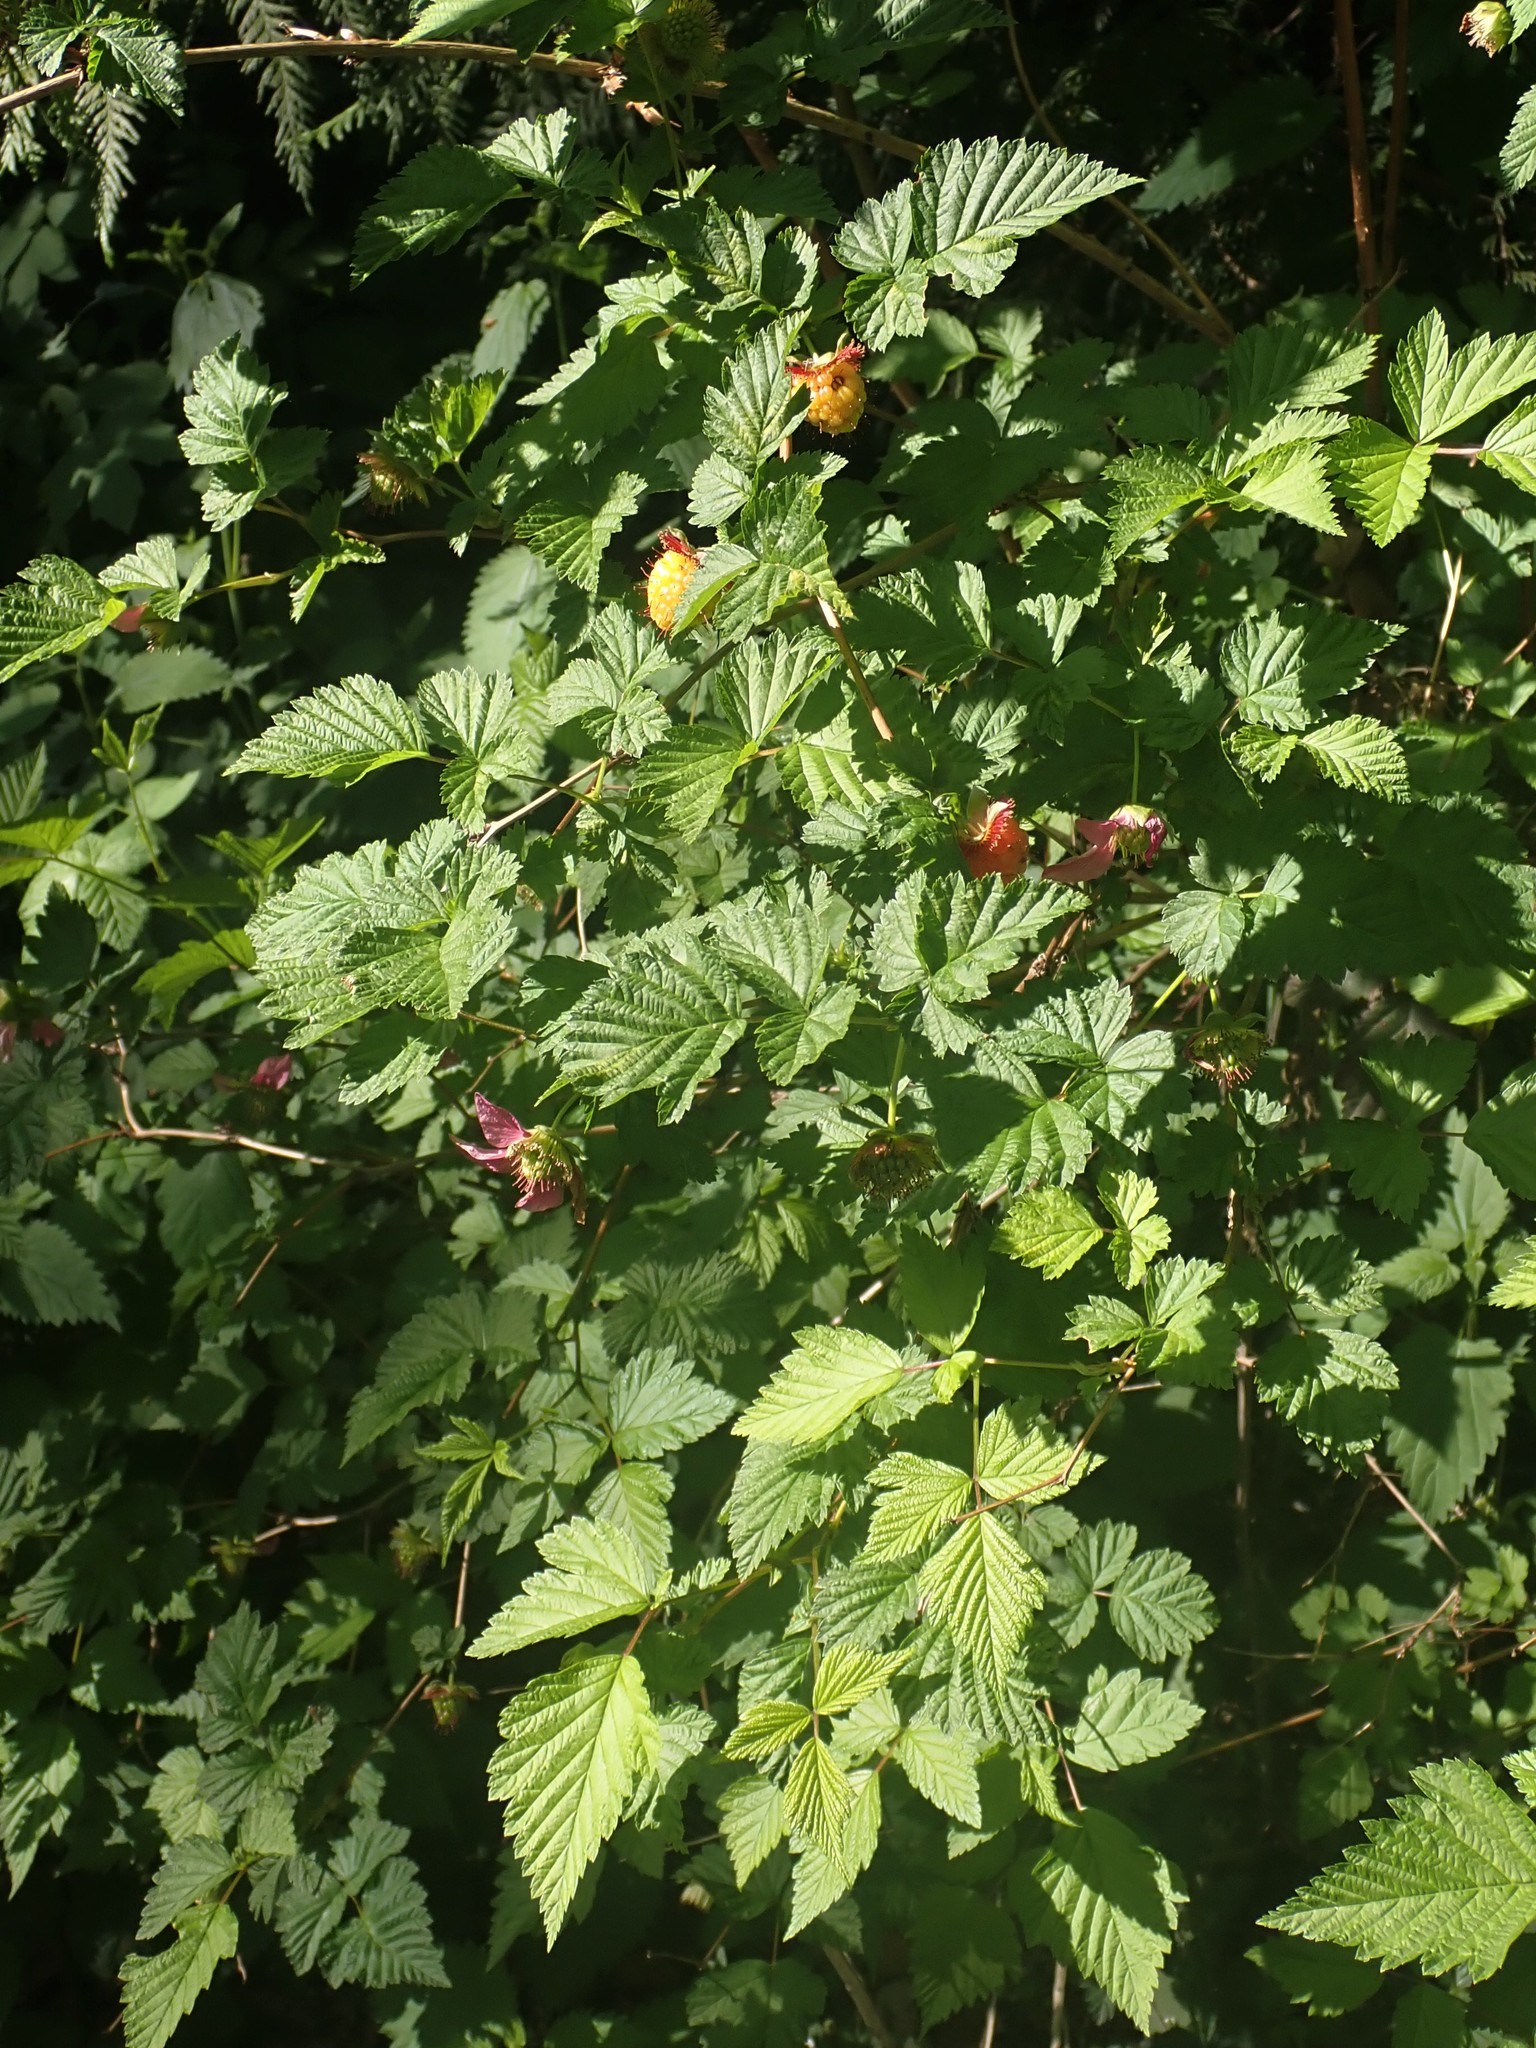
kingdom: Plantae
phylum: Tracheophyta
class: Magnoliopsida
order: Rosales
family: Rosaceae
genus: Rubus
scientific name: Rubus spectabilis
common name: Salmonberry
